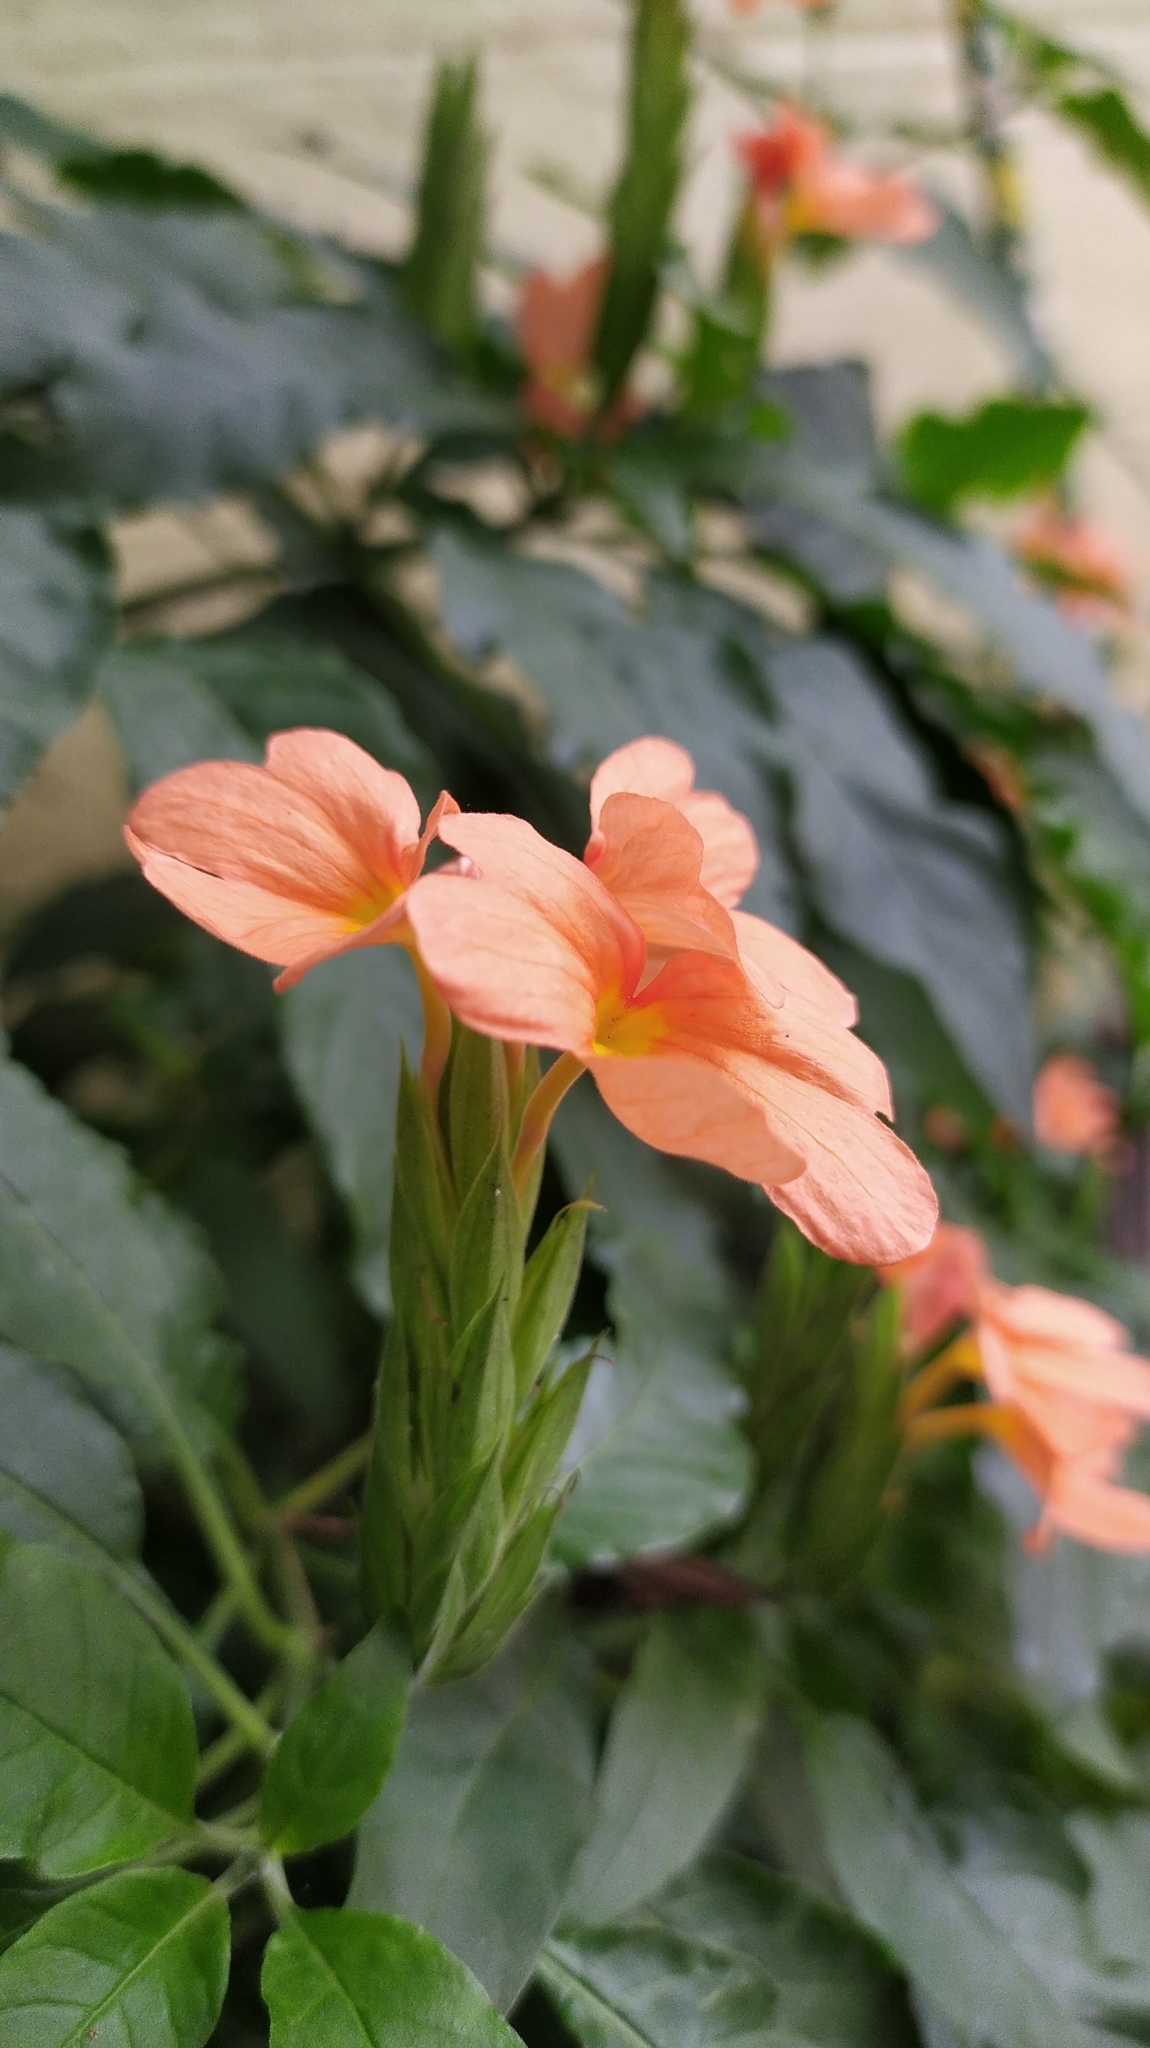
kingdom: Plantae
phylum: Tracheophyta
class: Magnoliopsida
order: Lamiales
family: Acanthaceae
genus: Crossandra
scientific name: Crossandra infundibuliformis
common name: Firecracker-flower
